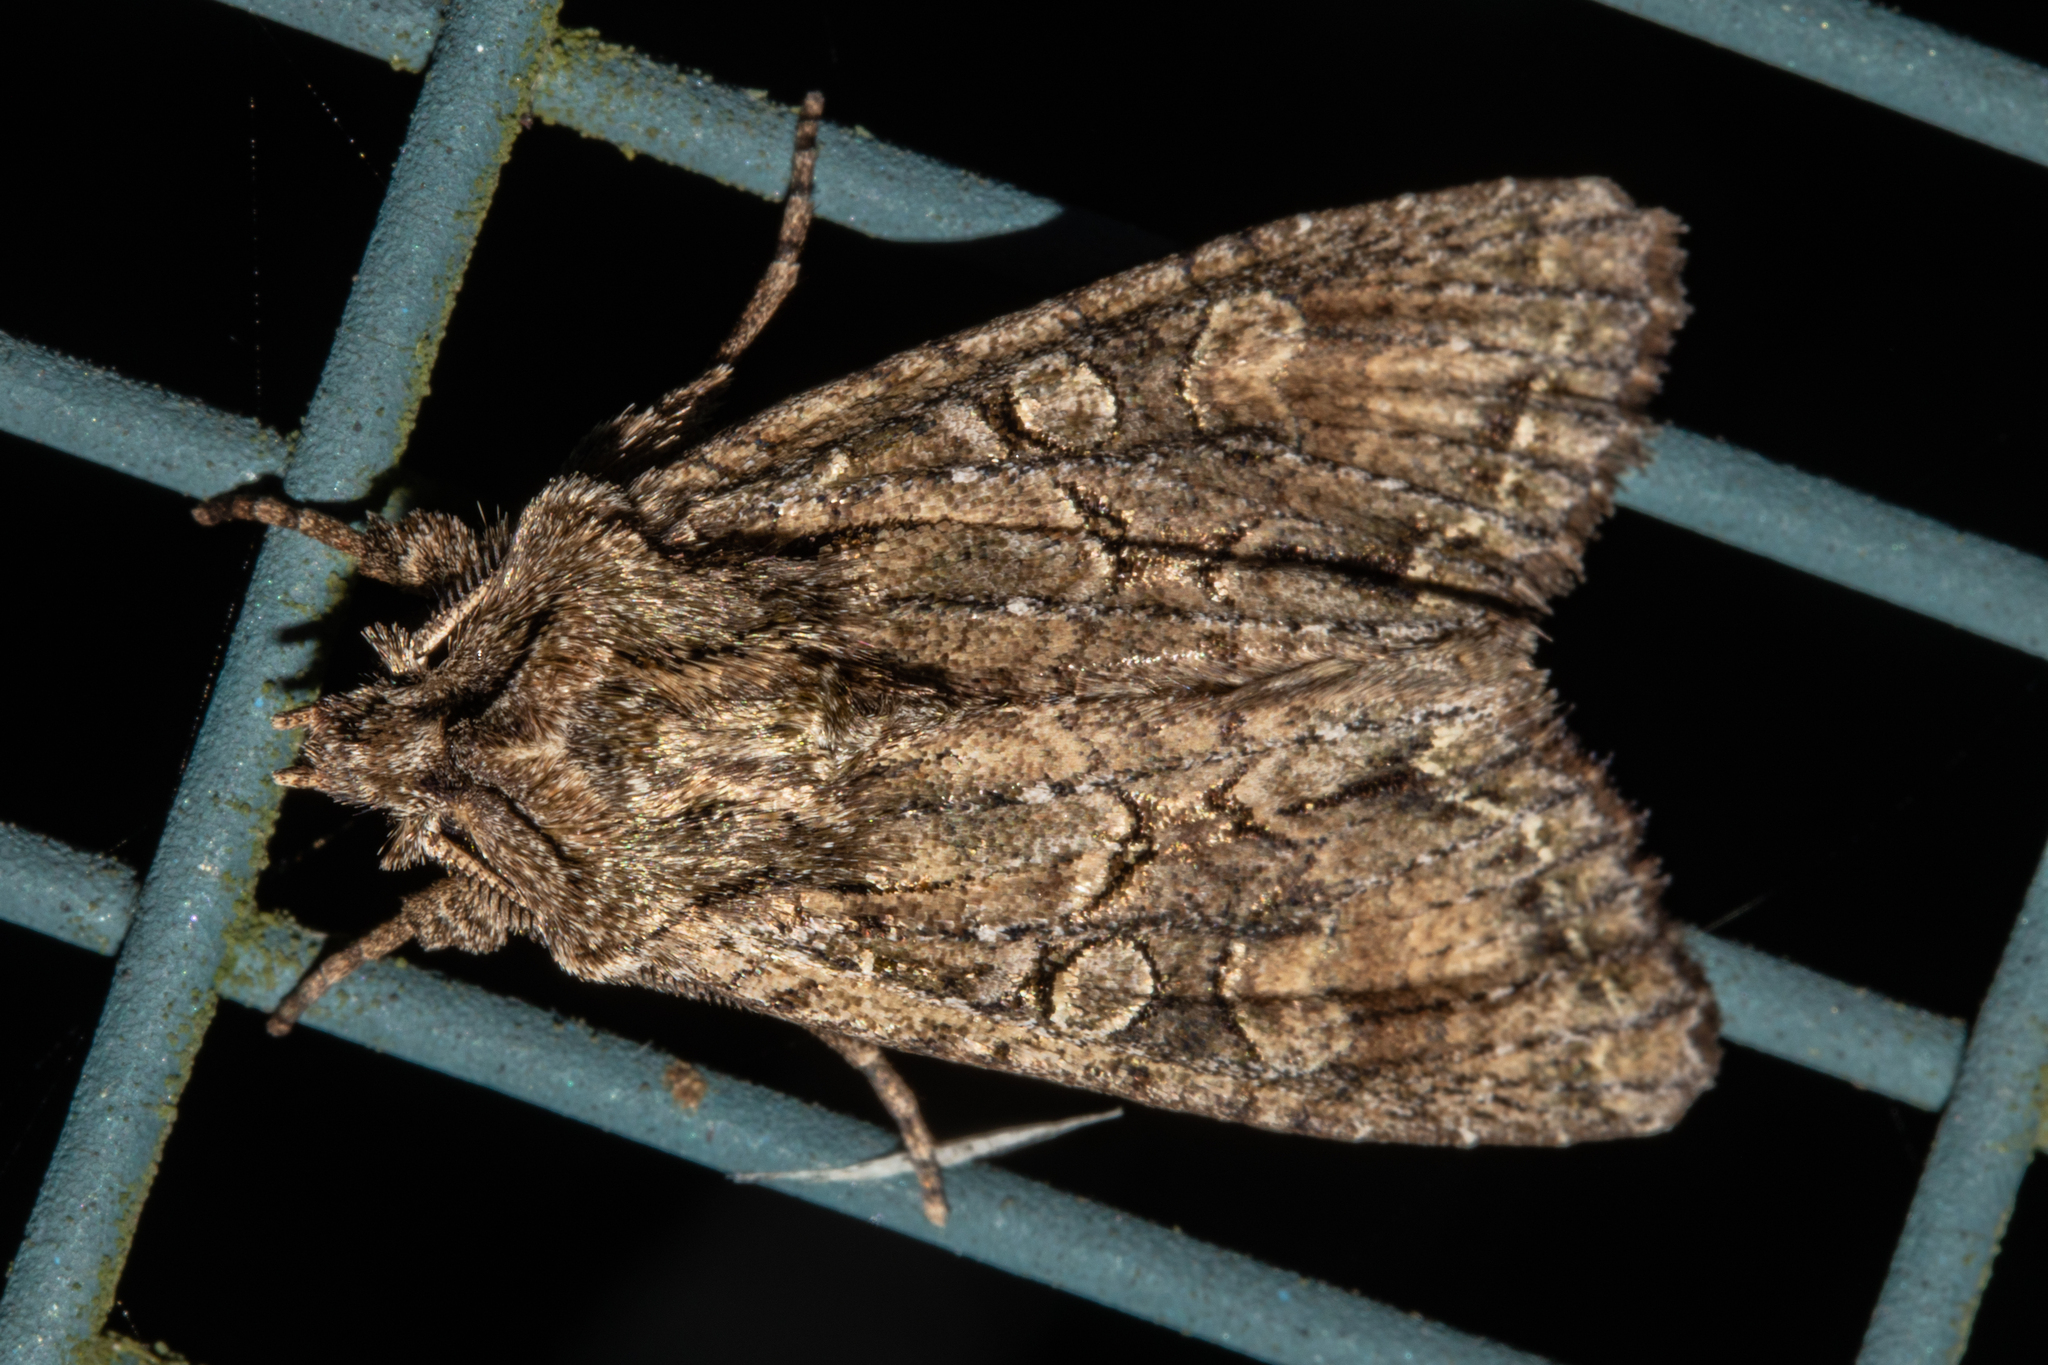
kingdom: Animalia
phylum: Arthropoda
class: Insecta
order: Lepidoptera
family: Noctuidae
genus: Ichneutica
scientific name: Ichneutica mutans
